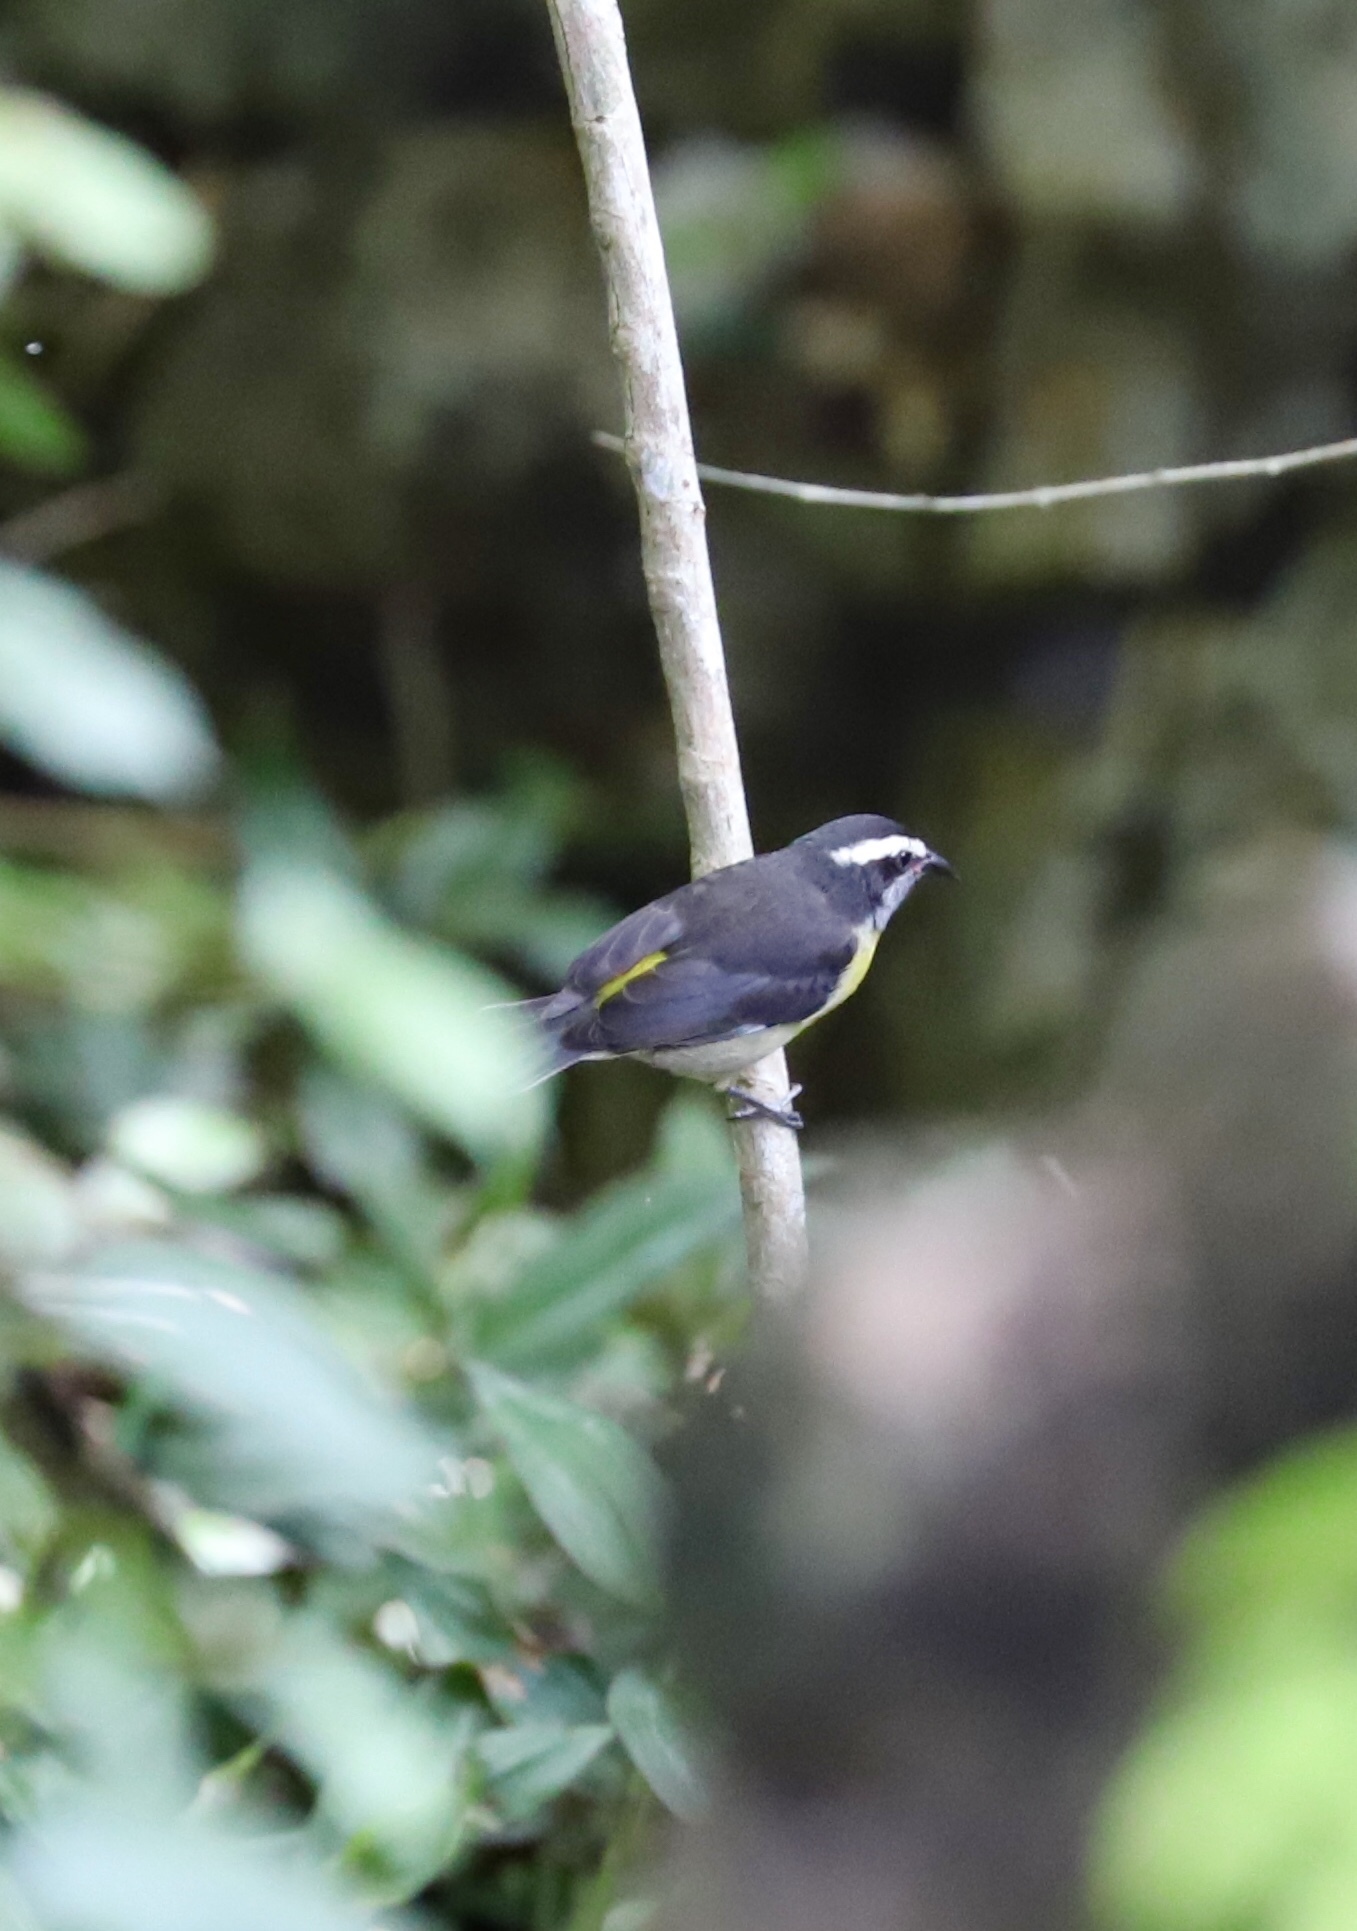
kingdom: Animalia
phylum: Chordata
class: Aves
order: Passeriformes
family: Thraupidae
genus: Coereba
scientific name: Coereba flaveola
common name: Bananaquit
